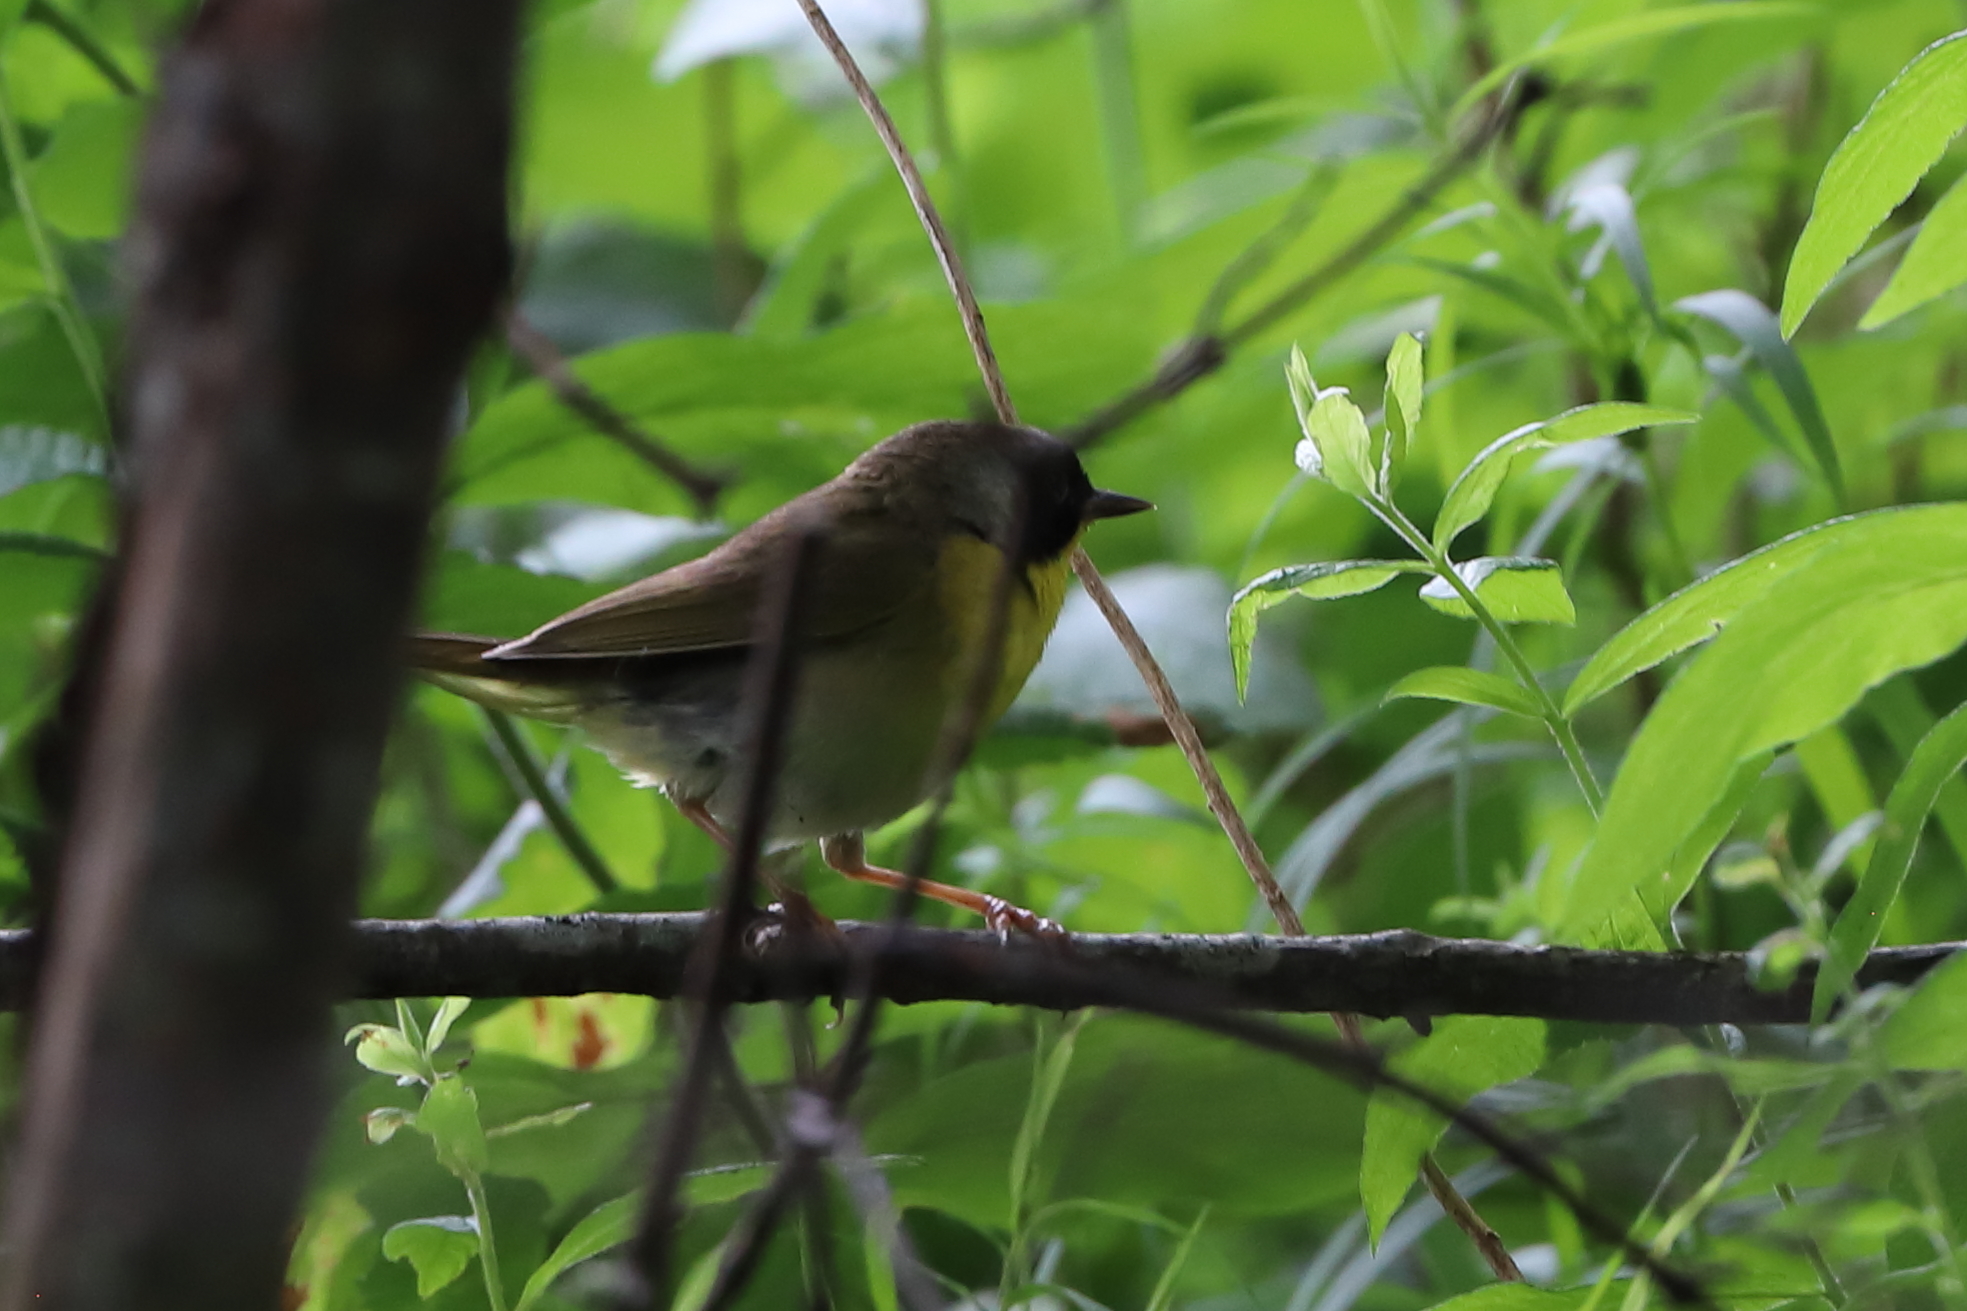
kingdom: Animalia
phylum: Chordata
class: Aves
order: Passeriformes
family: Parulidae
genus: Geothlypis
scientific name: Geothlypis trichas
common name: Common yellowthroat
